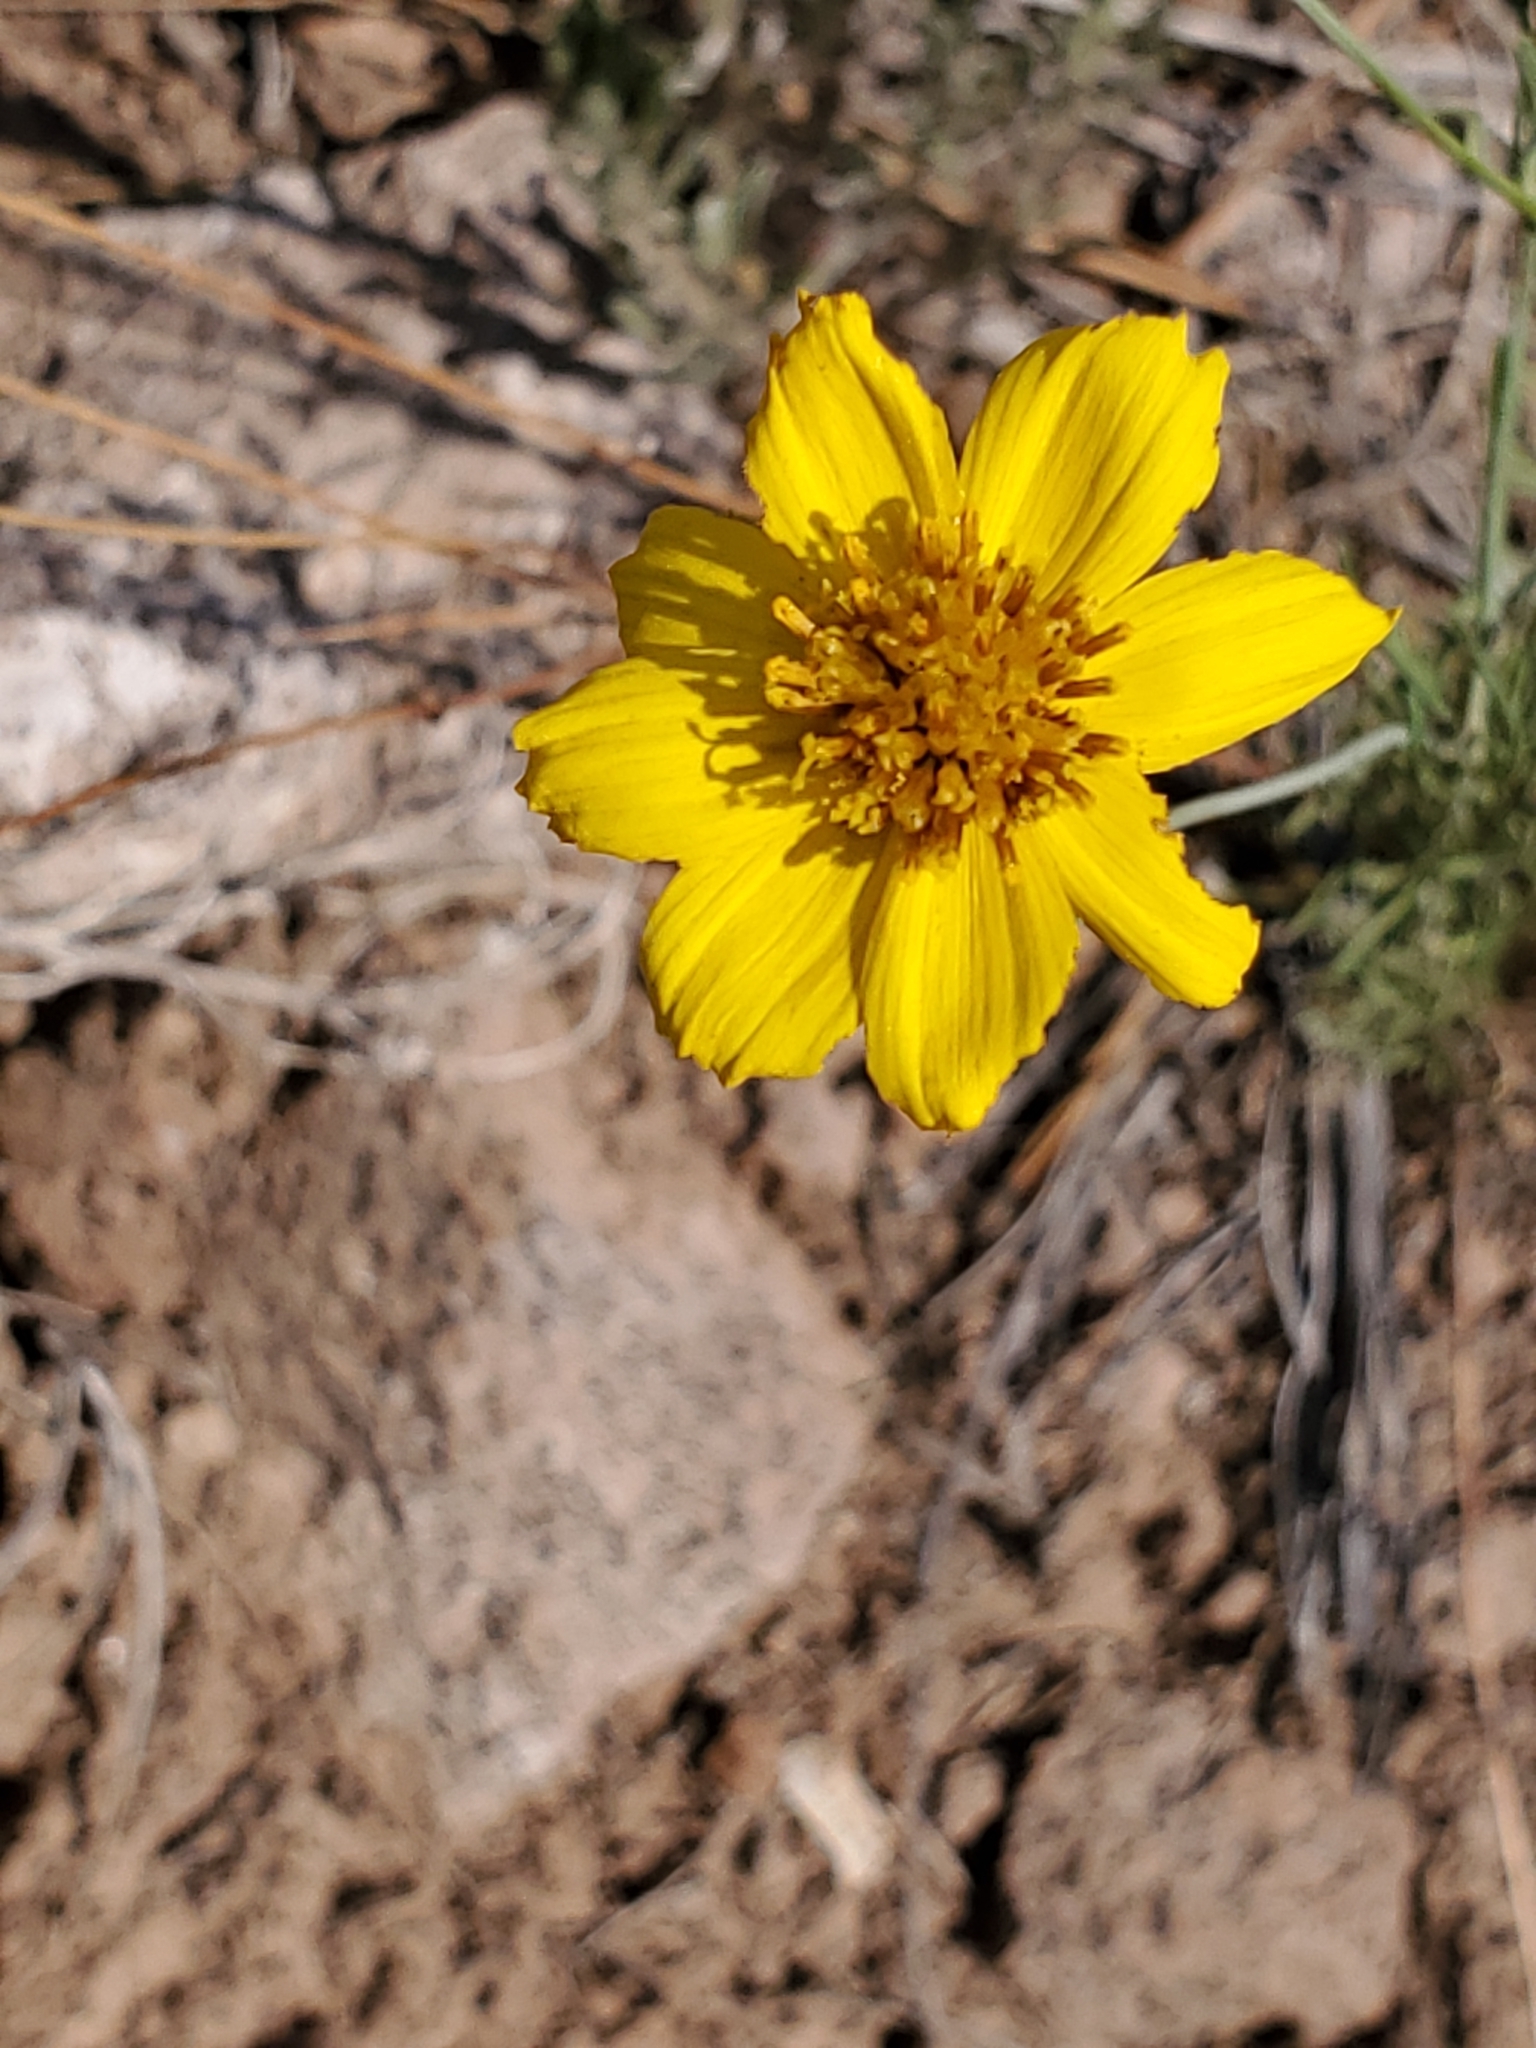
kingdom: Plantae
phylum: Tracheophyta
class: Magnoliopsida
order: Asterales
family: Asteraceae
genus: Thelesperma
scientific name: Thelesperma filifolium
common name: Stiff greenthread
